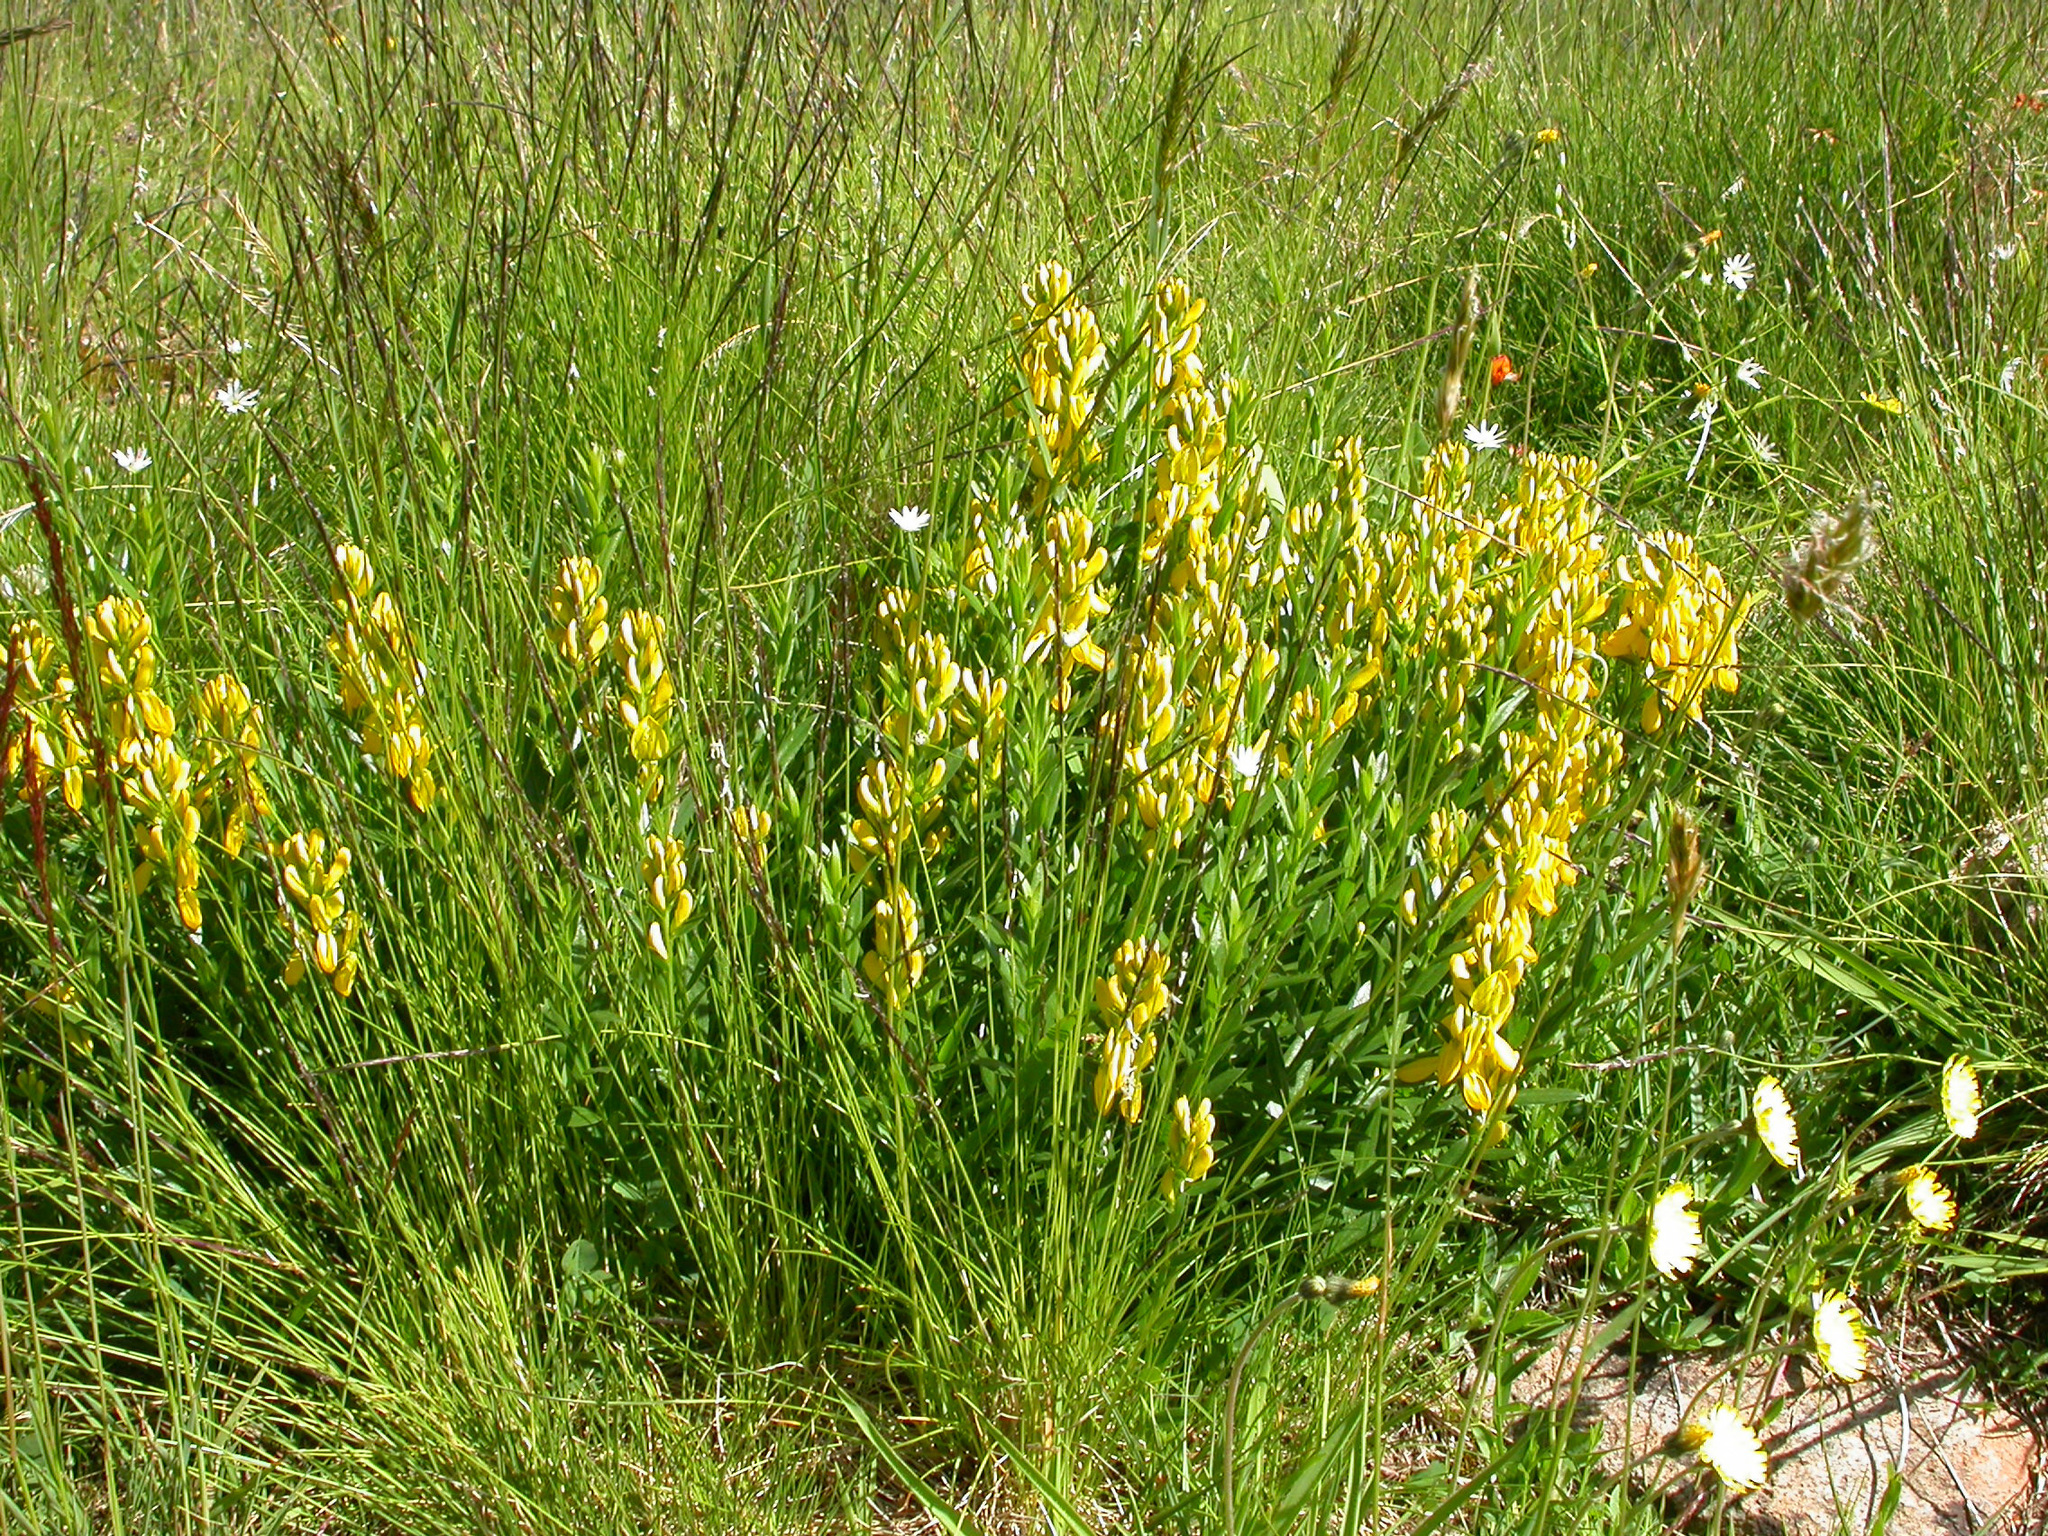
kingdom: Plantae
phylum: Tracheophyta
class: Magnoliopsida
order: Fabales
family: Fabaceae
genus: Genista
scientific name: Genista tinctoria
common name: Dyer's greenweed
